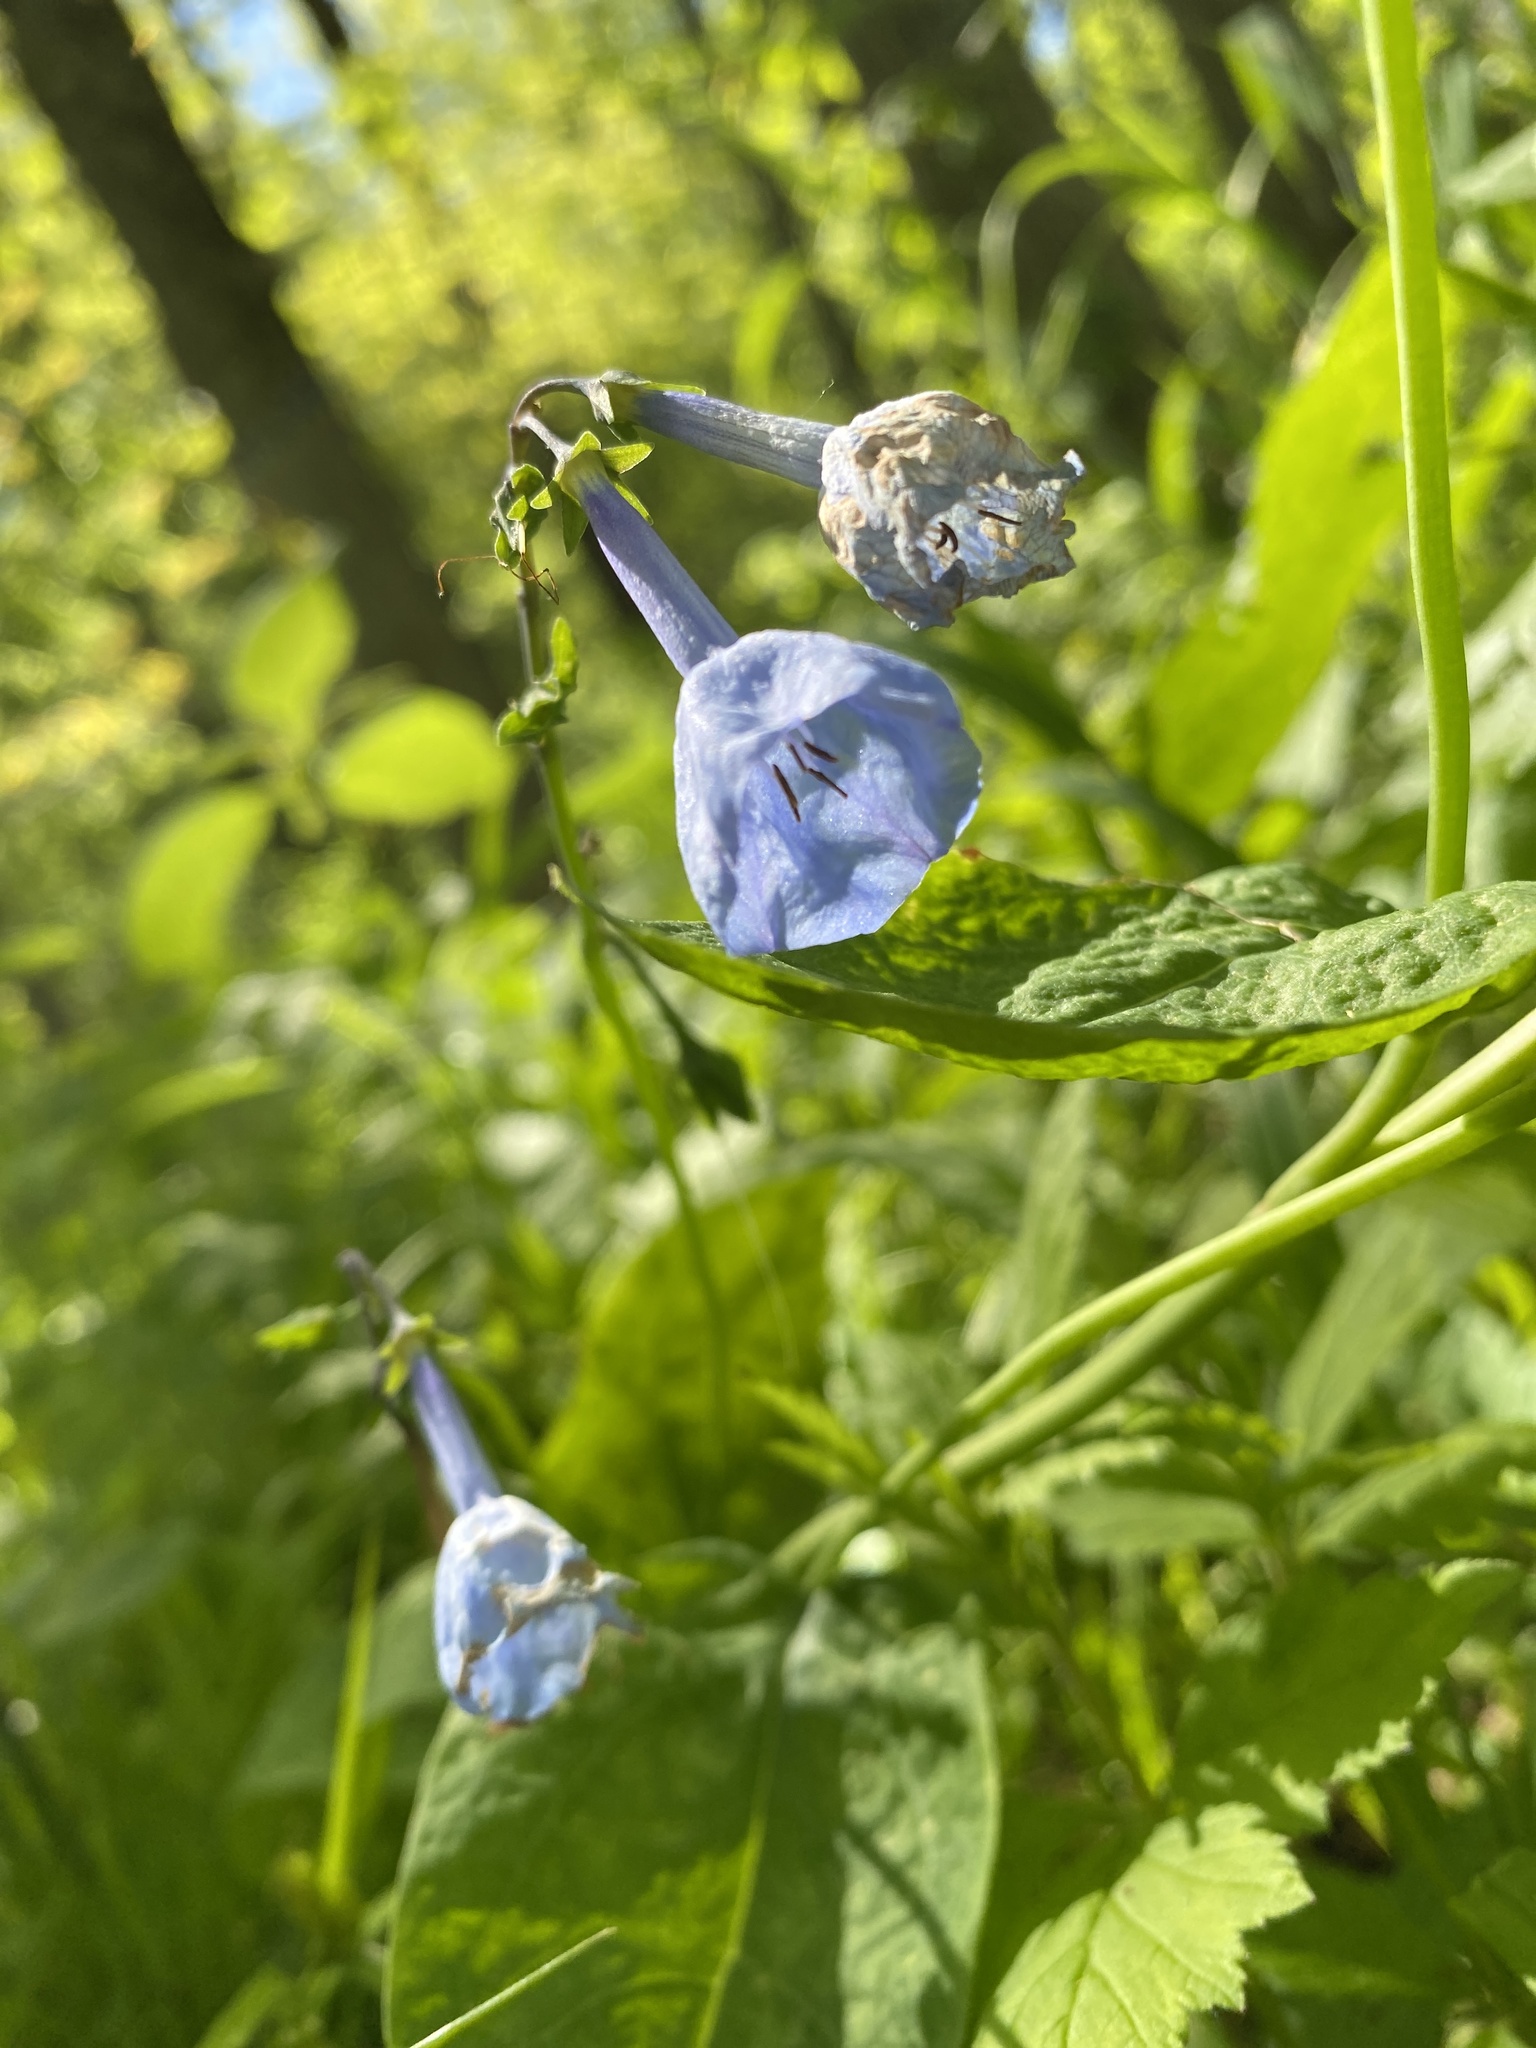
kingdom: Plantae
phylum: Tracheophyta
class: Magnoliopsida
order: Boraginales
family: Boraginaceae
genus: Mertensia
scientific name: Mertensia virginica
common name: Virginia bluebells
